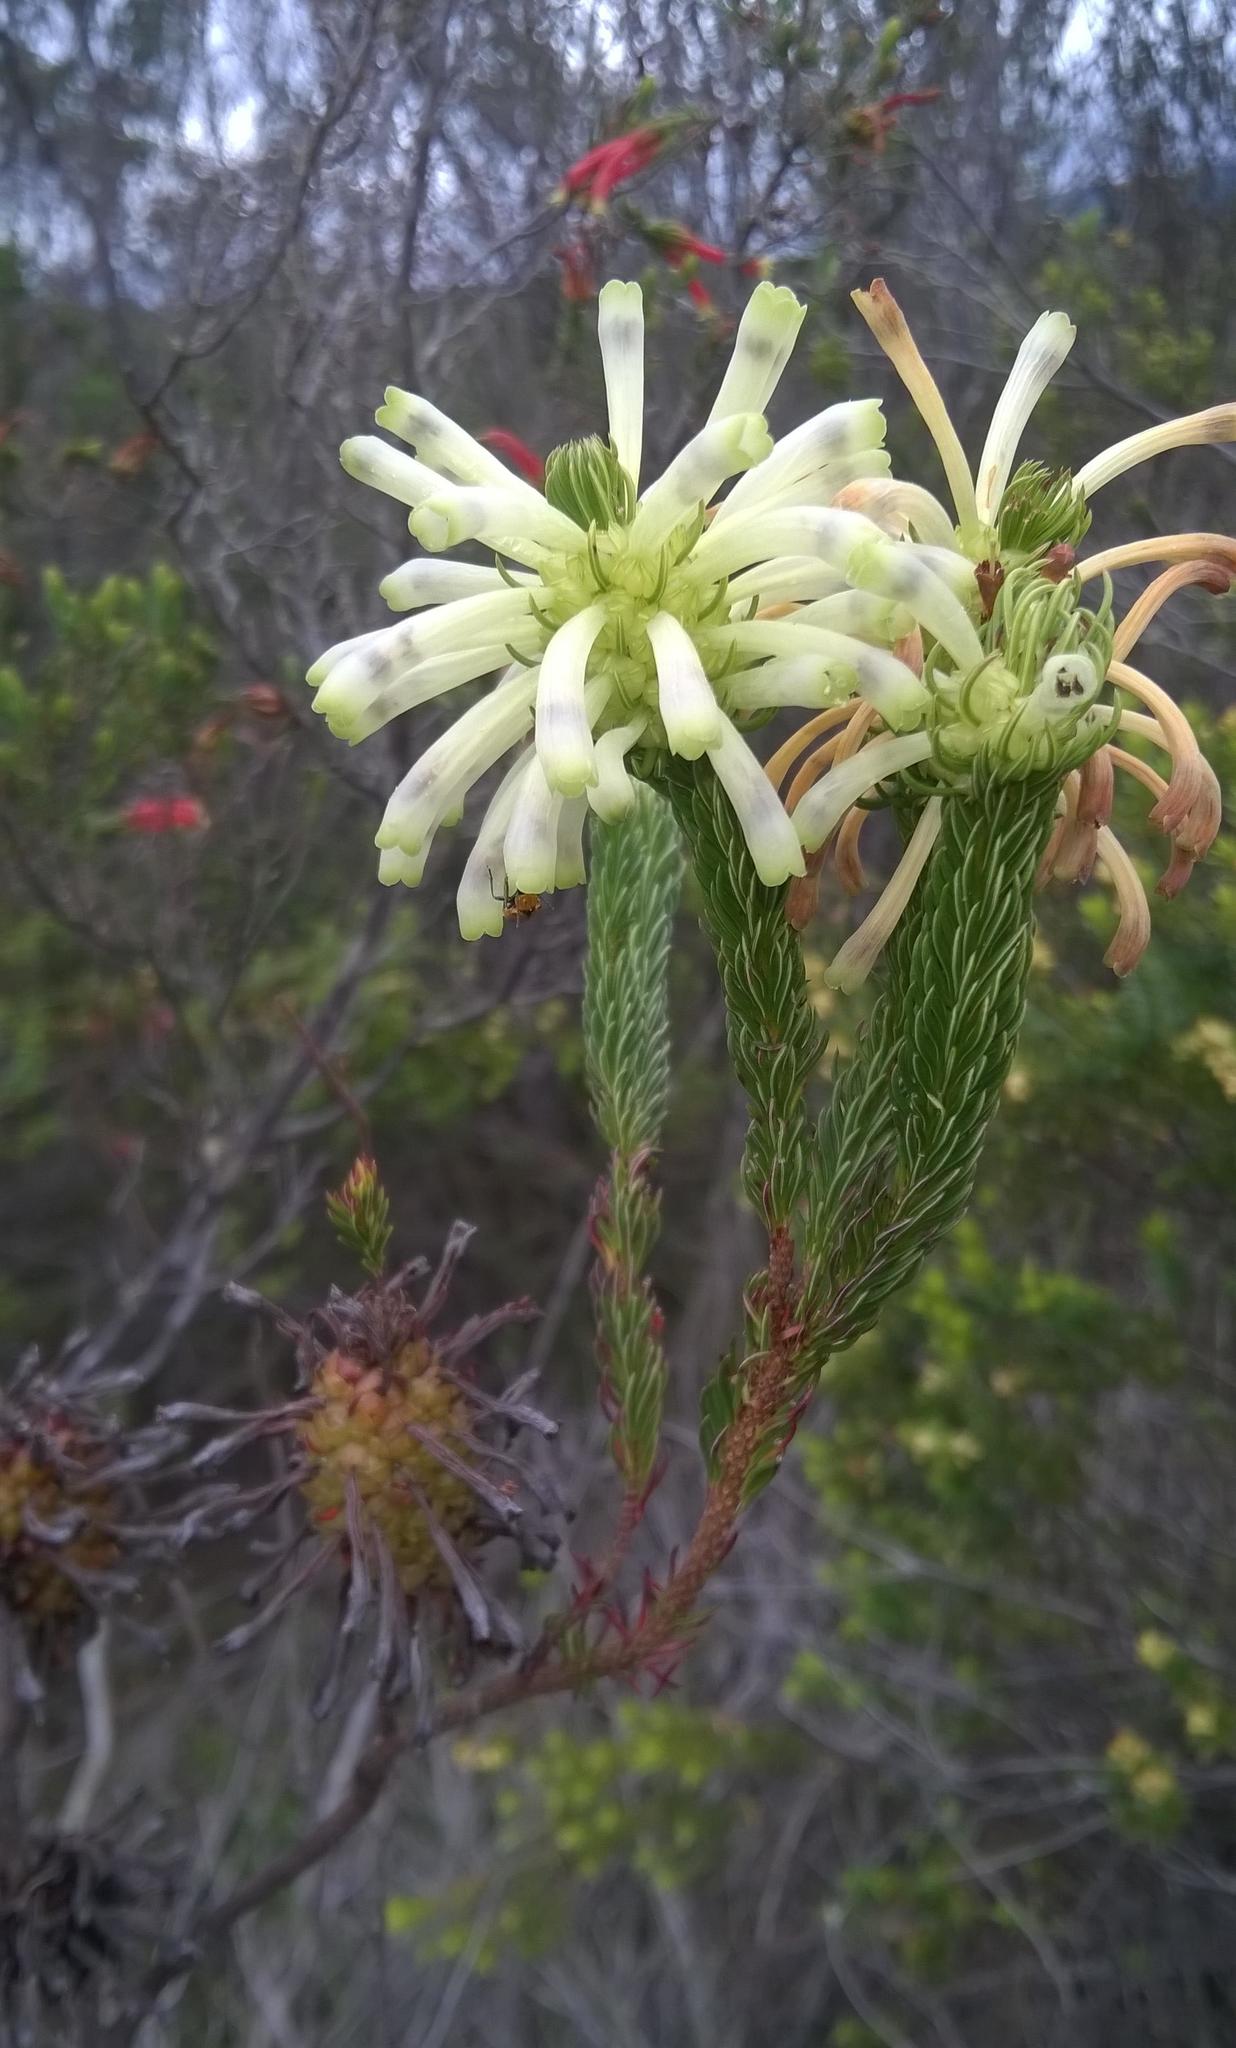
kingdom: Plantae
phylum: Tracheophyta
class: Magnoliopsida
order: Ericales
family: Ericaceae
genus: Erica
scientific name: Erica sessiliflora
